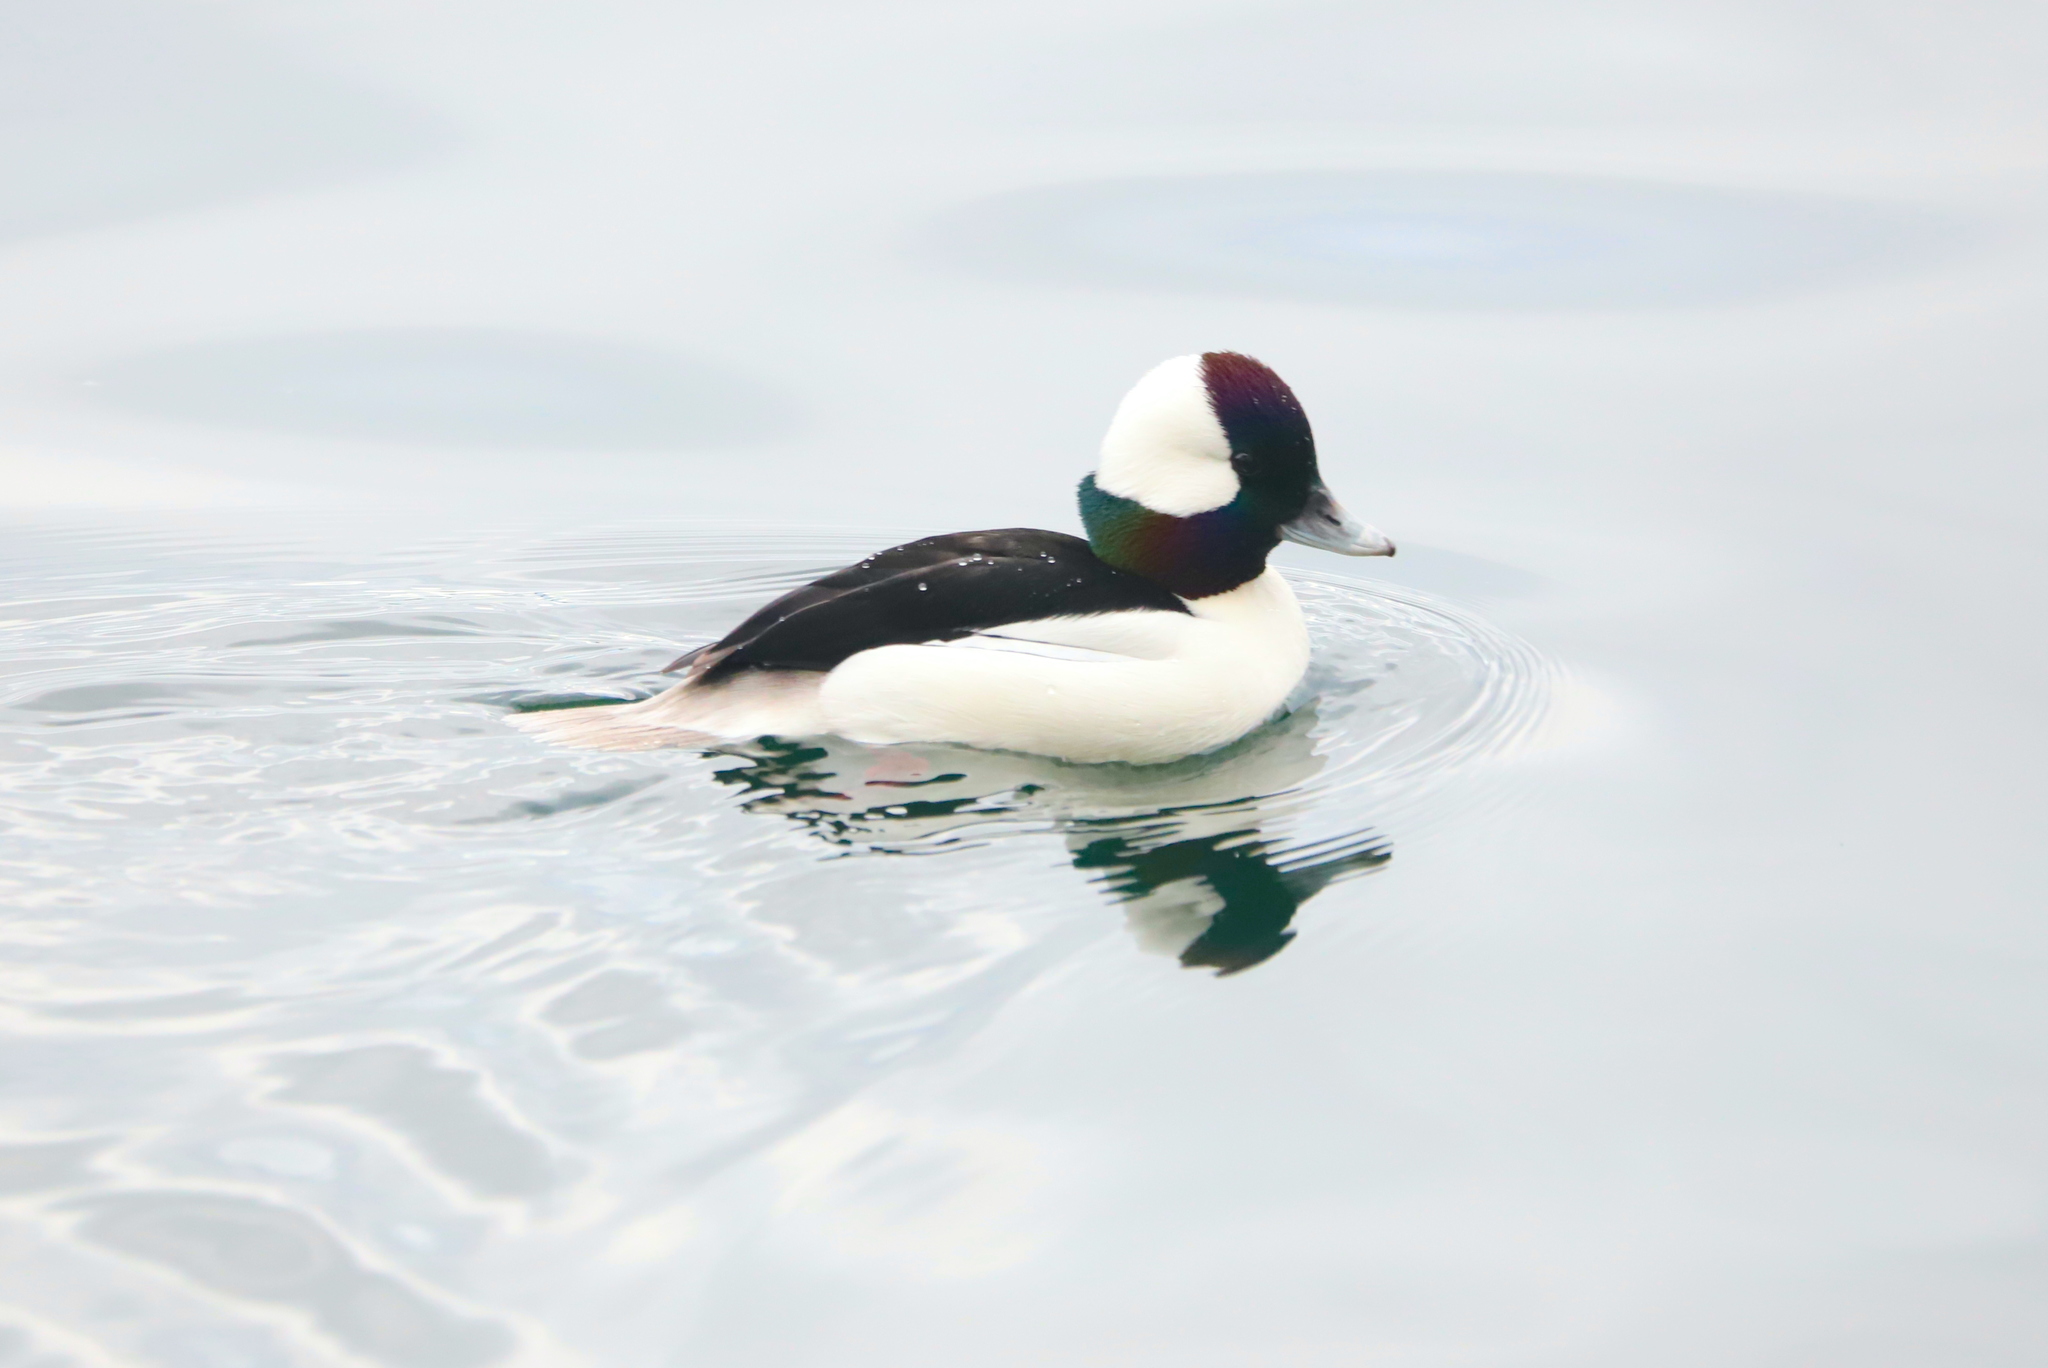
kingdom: Animalia
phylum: Chordata
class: Aves
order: Anseriformes
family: Anatidae
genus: Bucephala
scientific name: Bucephala albeola
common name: Bufflehead
